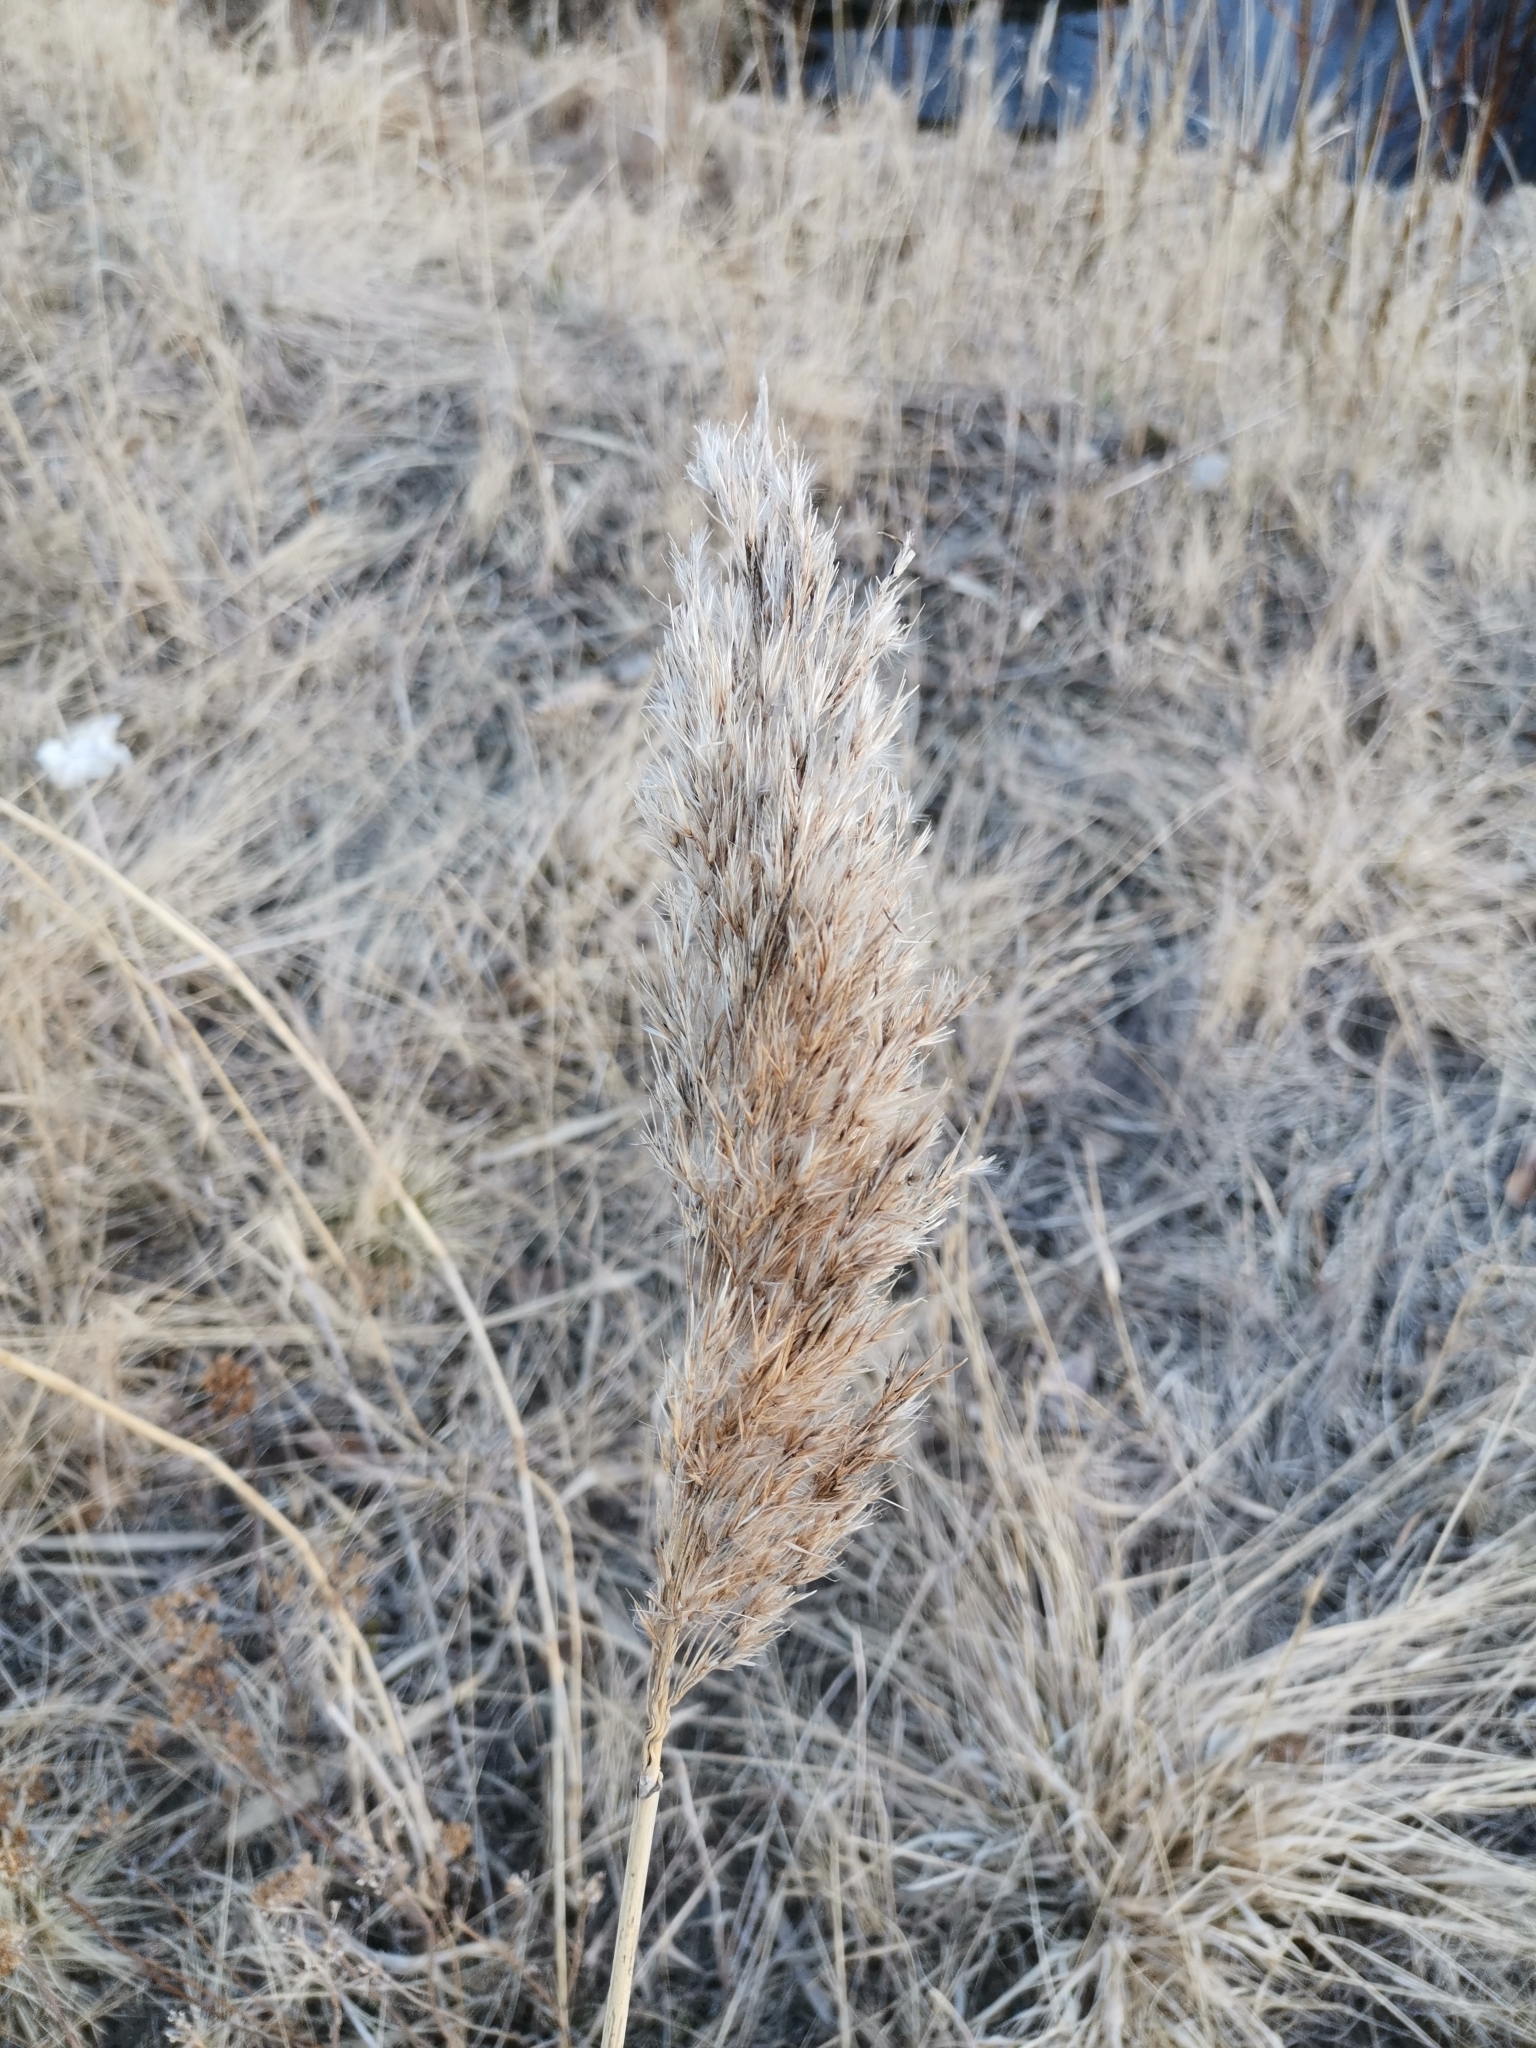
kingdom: Plantae
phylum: Tracheophyta
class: Liliopsida
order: Poales
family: Poaceae
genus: Phragmites
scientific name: Phragmites australis
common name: Common reed
